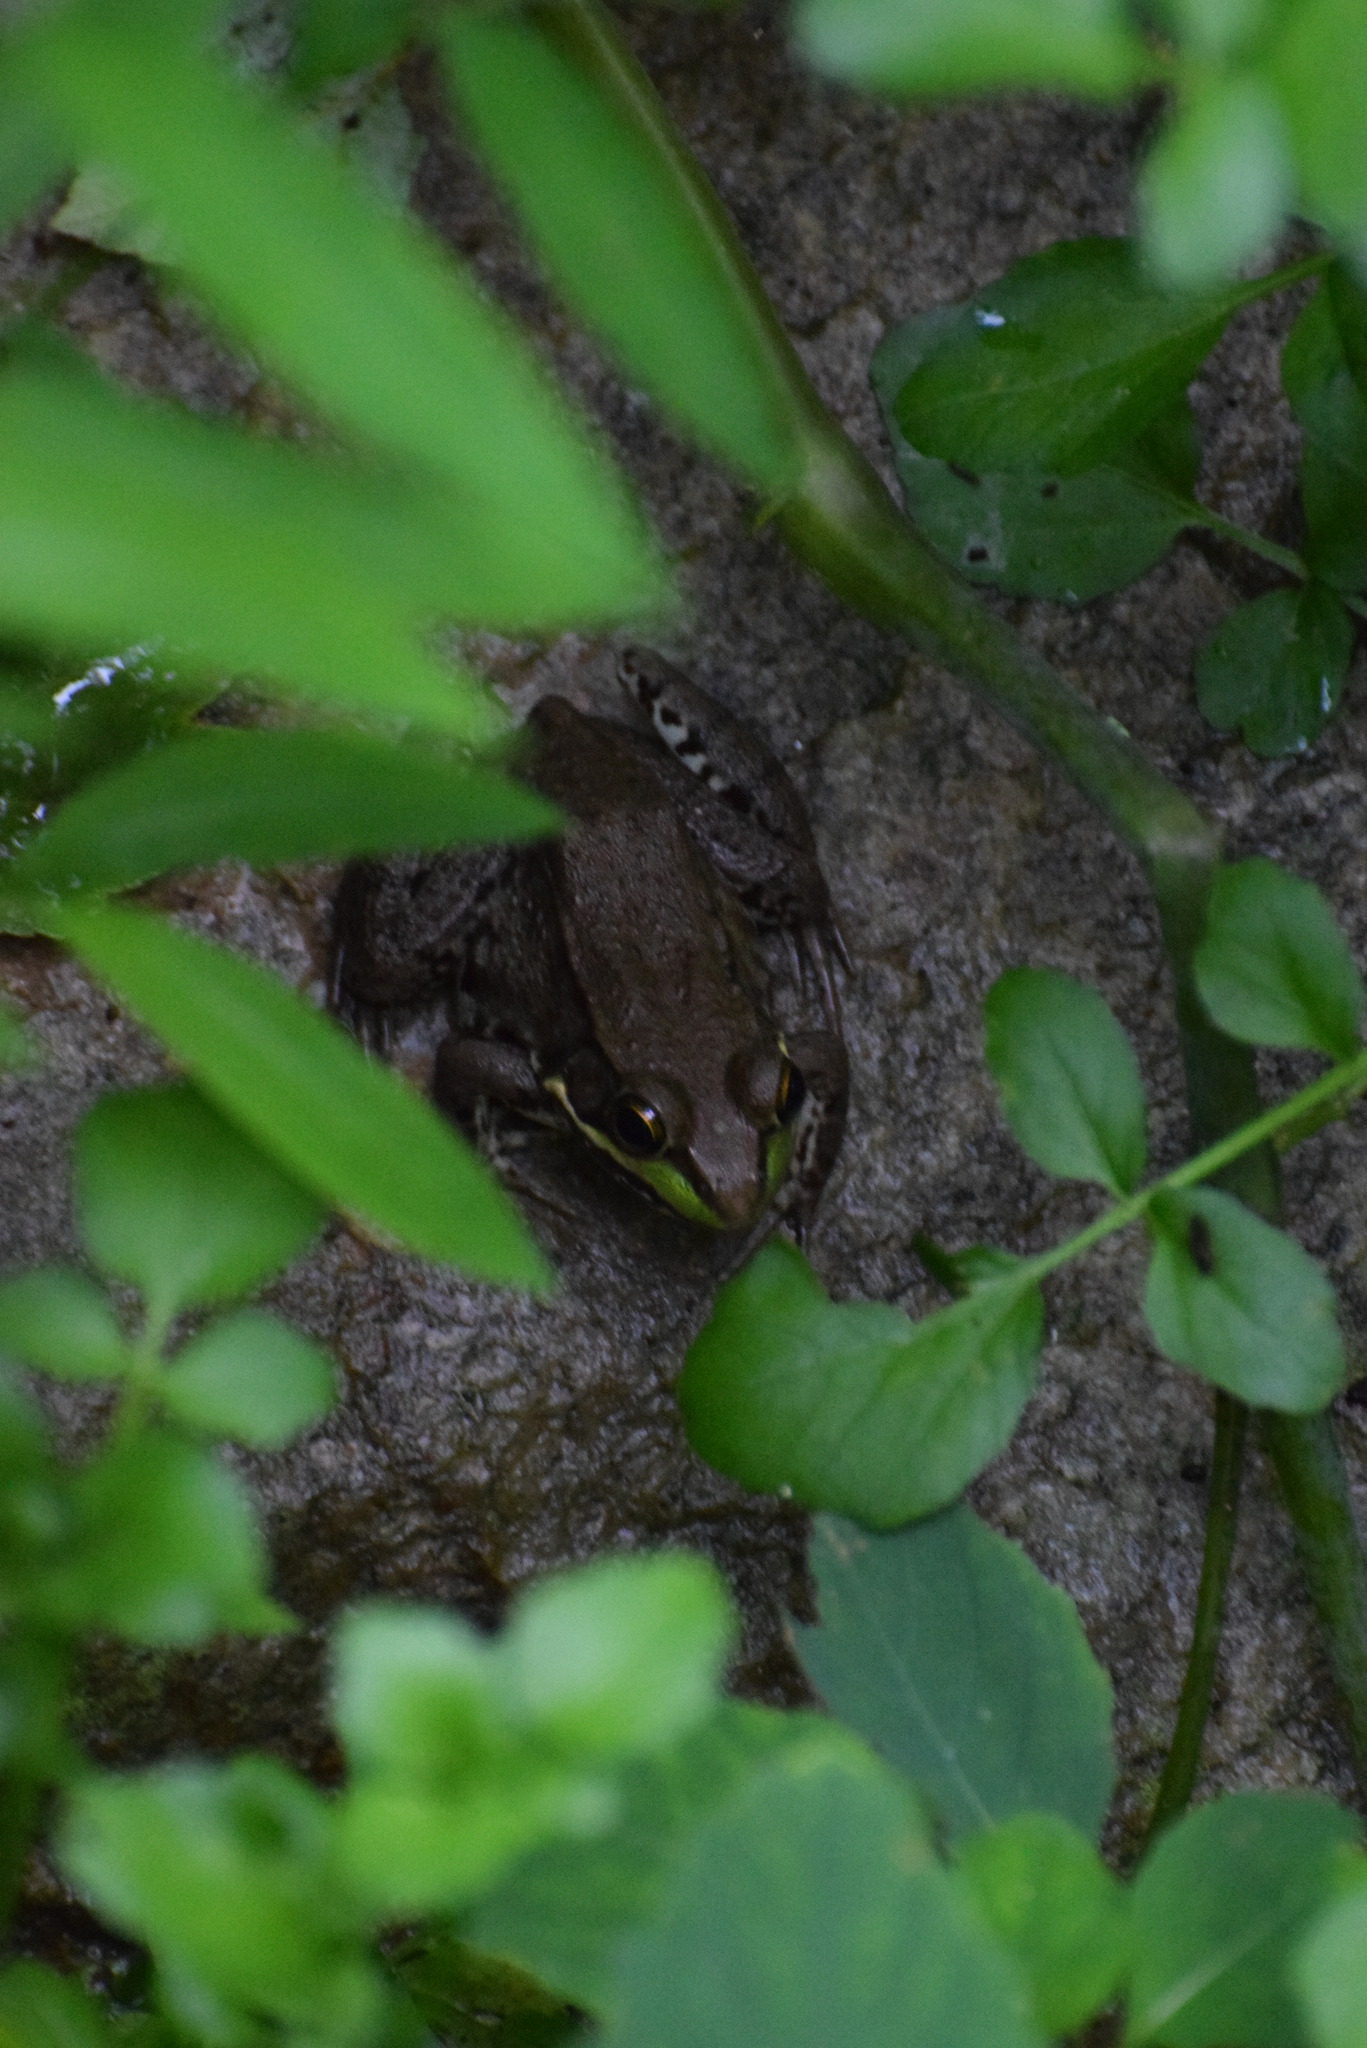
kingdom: Animalia
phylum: Chordata
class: Amphibia
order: Anura
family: Ranidae
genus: Lithobates
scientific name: Lithobates clamitans
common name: Green frog
